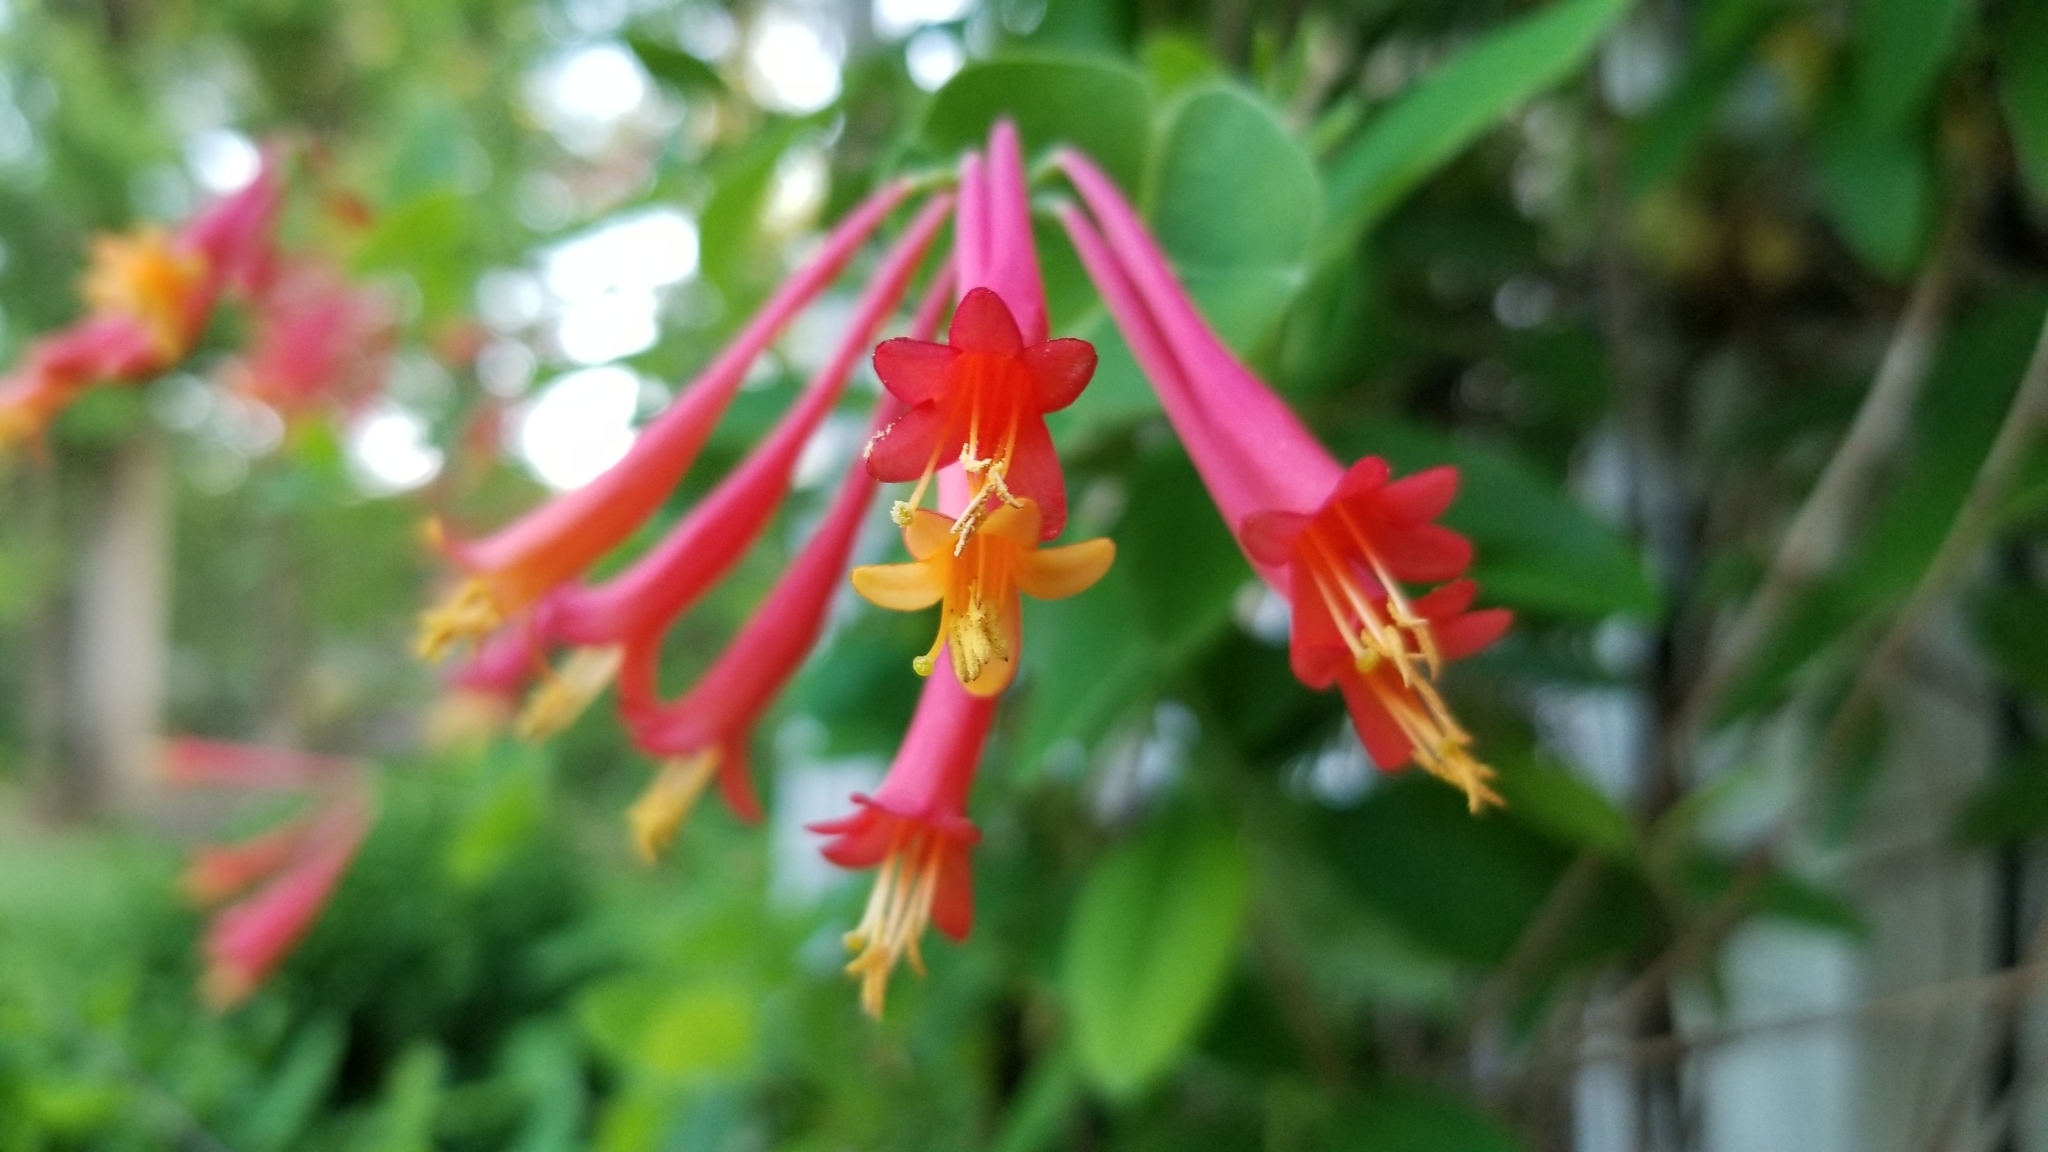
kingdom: Plantae
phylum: Tracheophyta
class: Magnoliopsida
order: Dipsacales
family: Caprifoliaceae
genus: Lonicera
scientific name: Lonicera sempervirens
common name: Coral honeysuckle
